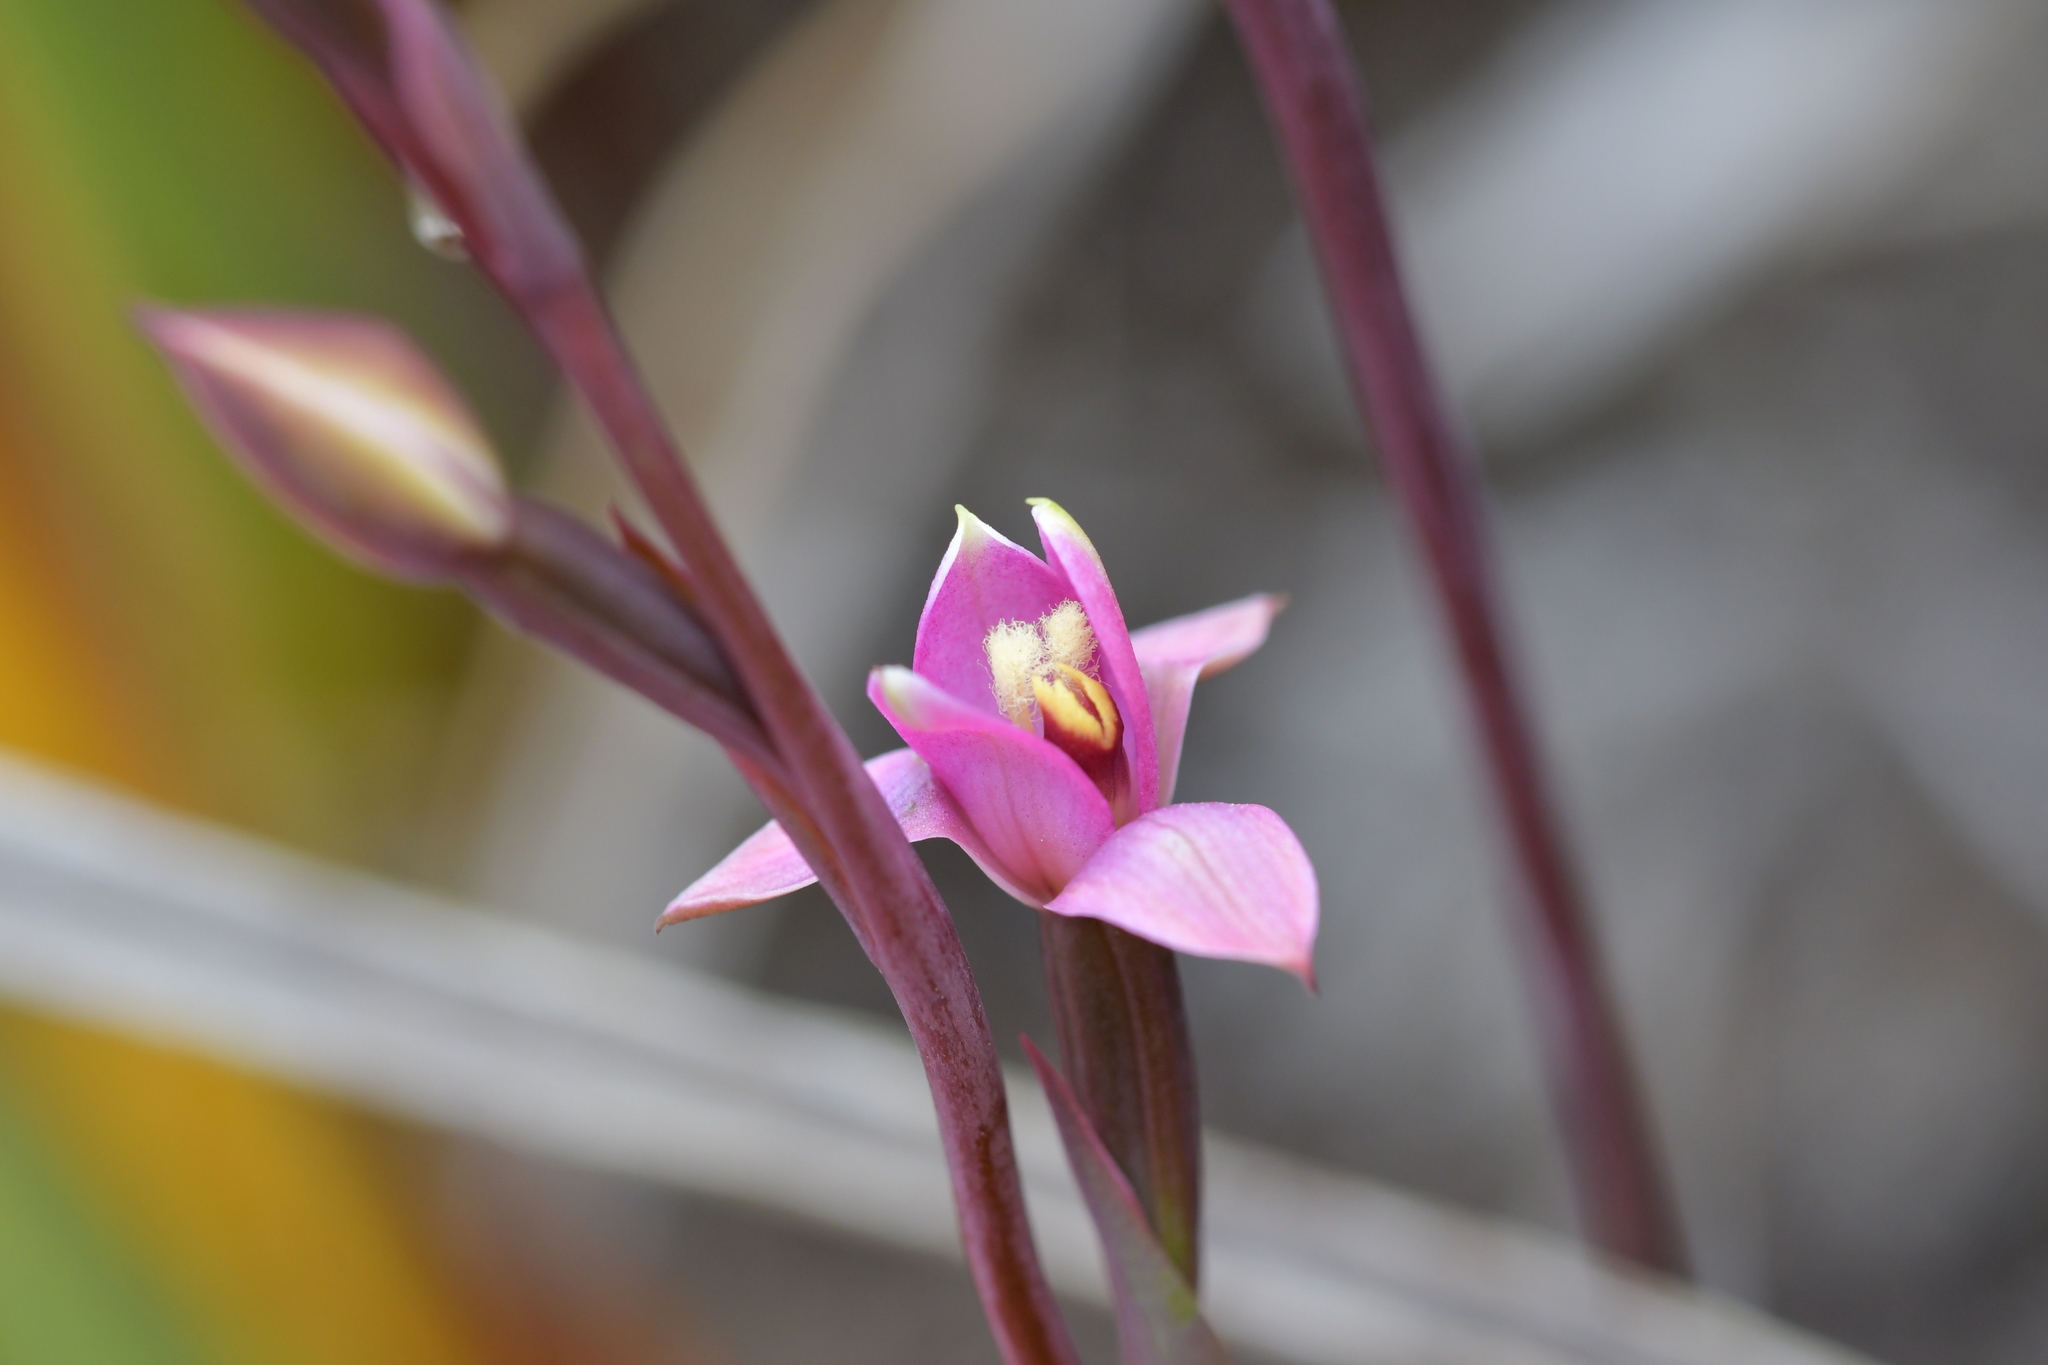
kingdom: Plantae
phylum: Tracheophyta
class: Liliopsida
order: Asparagales
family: Orchidaceae
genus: Thelymitra
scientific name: Thelymitra hatchii
